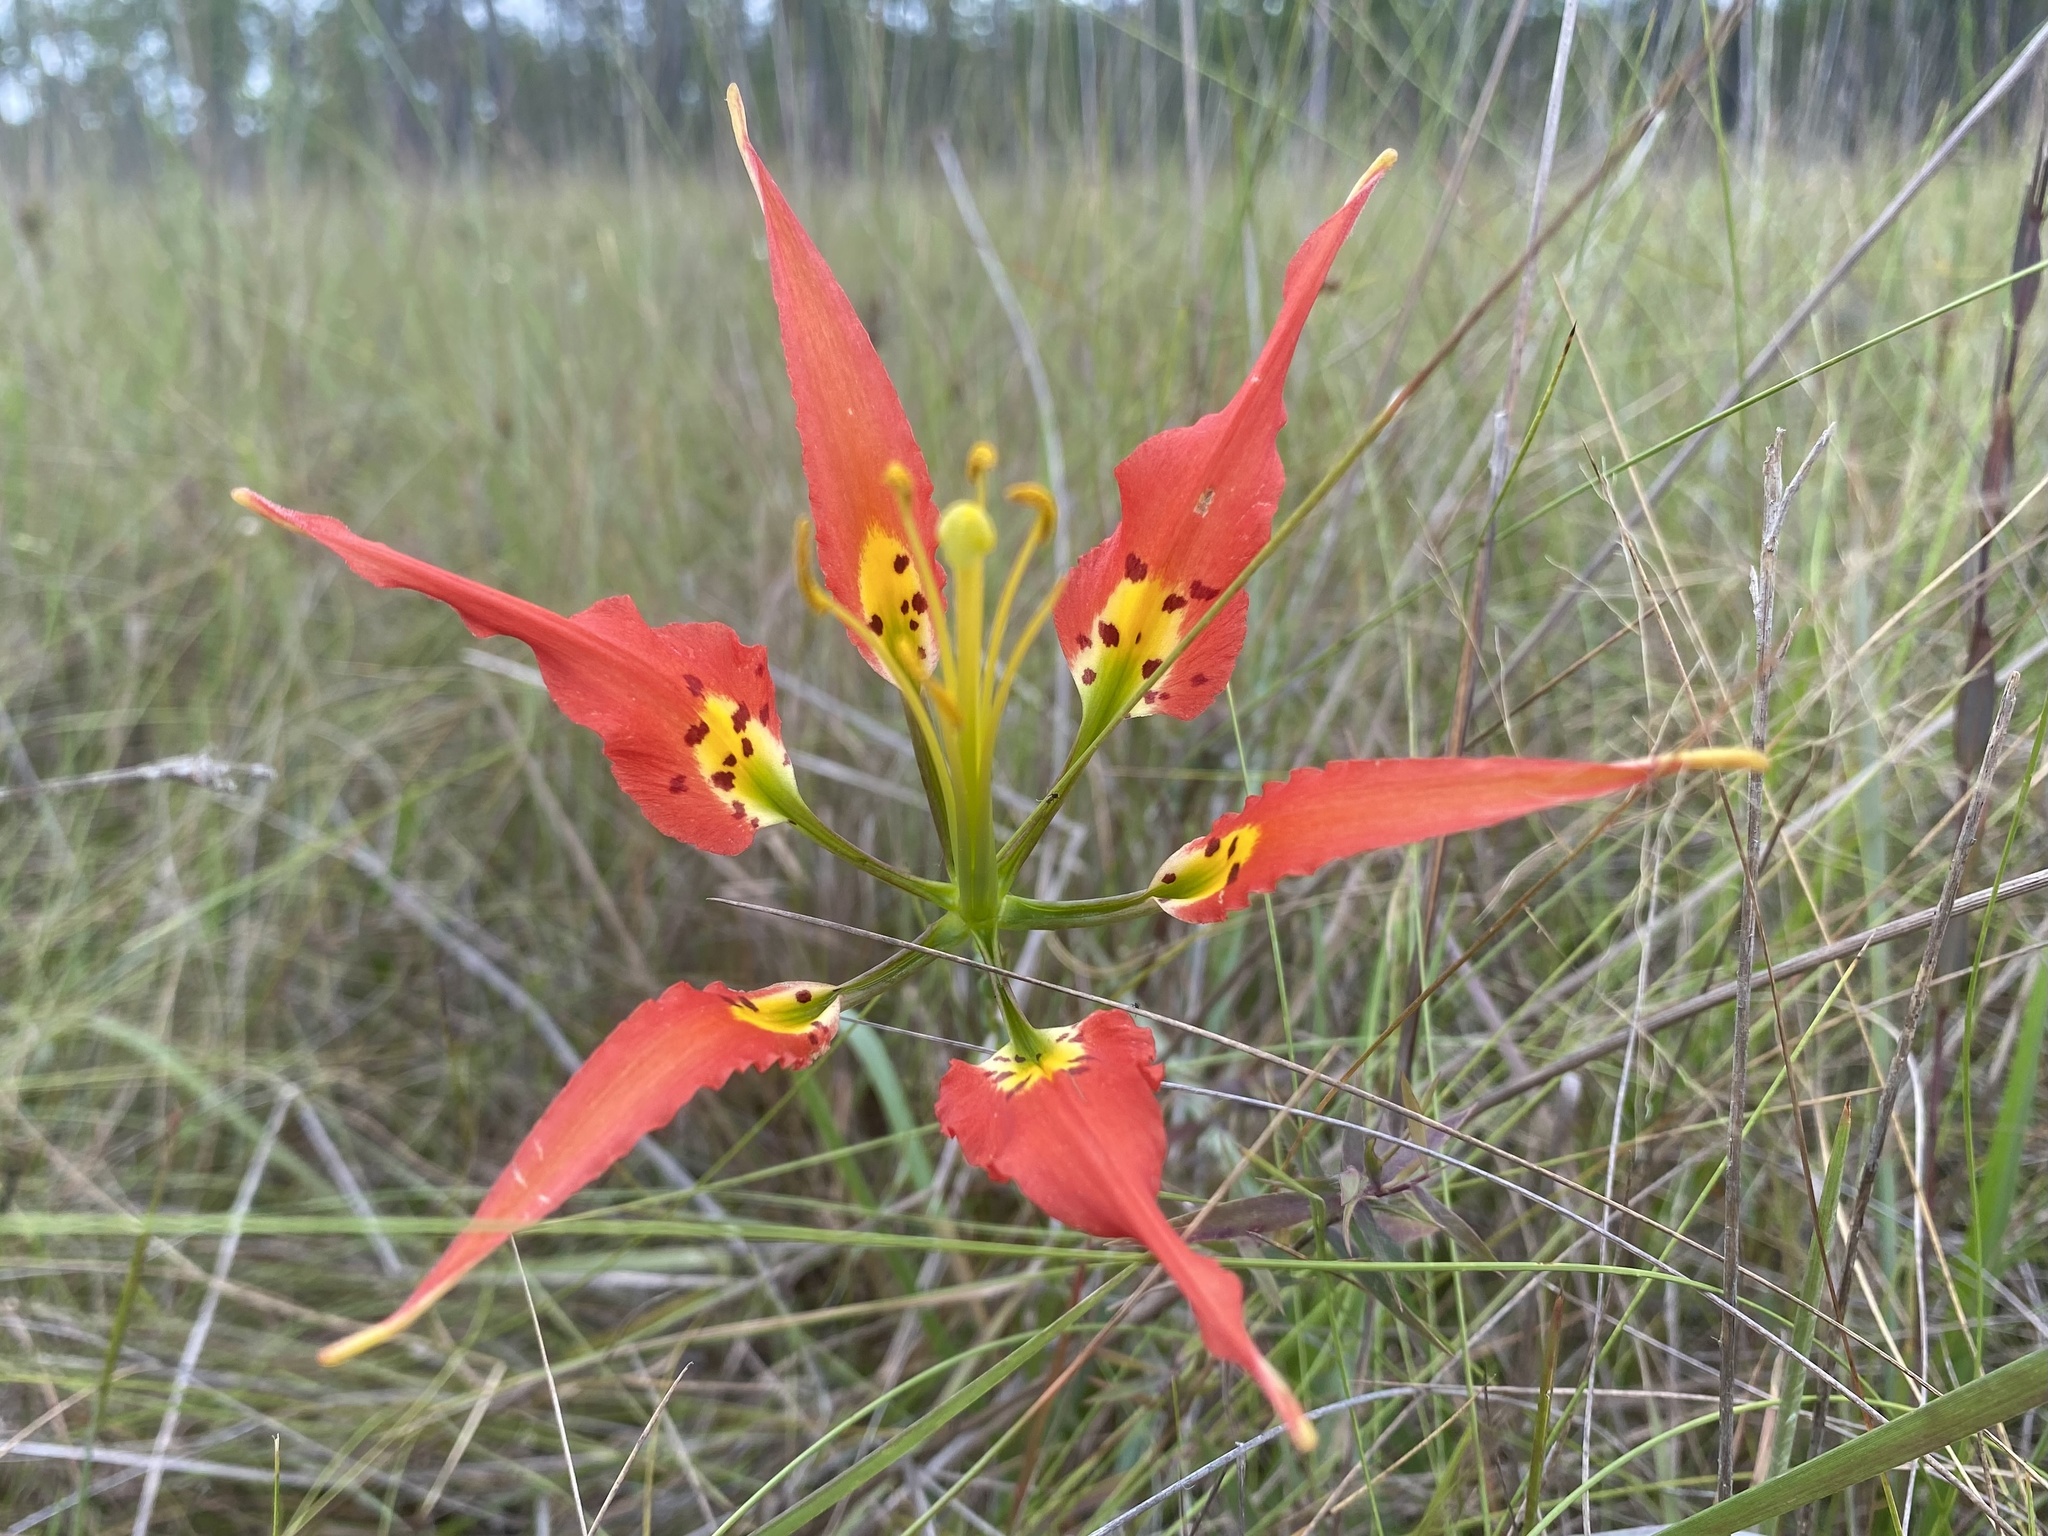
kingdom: Plantae
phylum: Tracheophyta
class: Liliopsida
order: Liliales
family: Liliaceae
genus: Lilium
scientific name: Lilium catesbaei
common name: Catesby's lily
